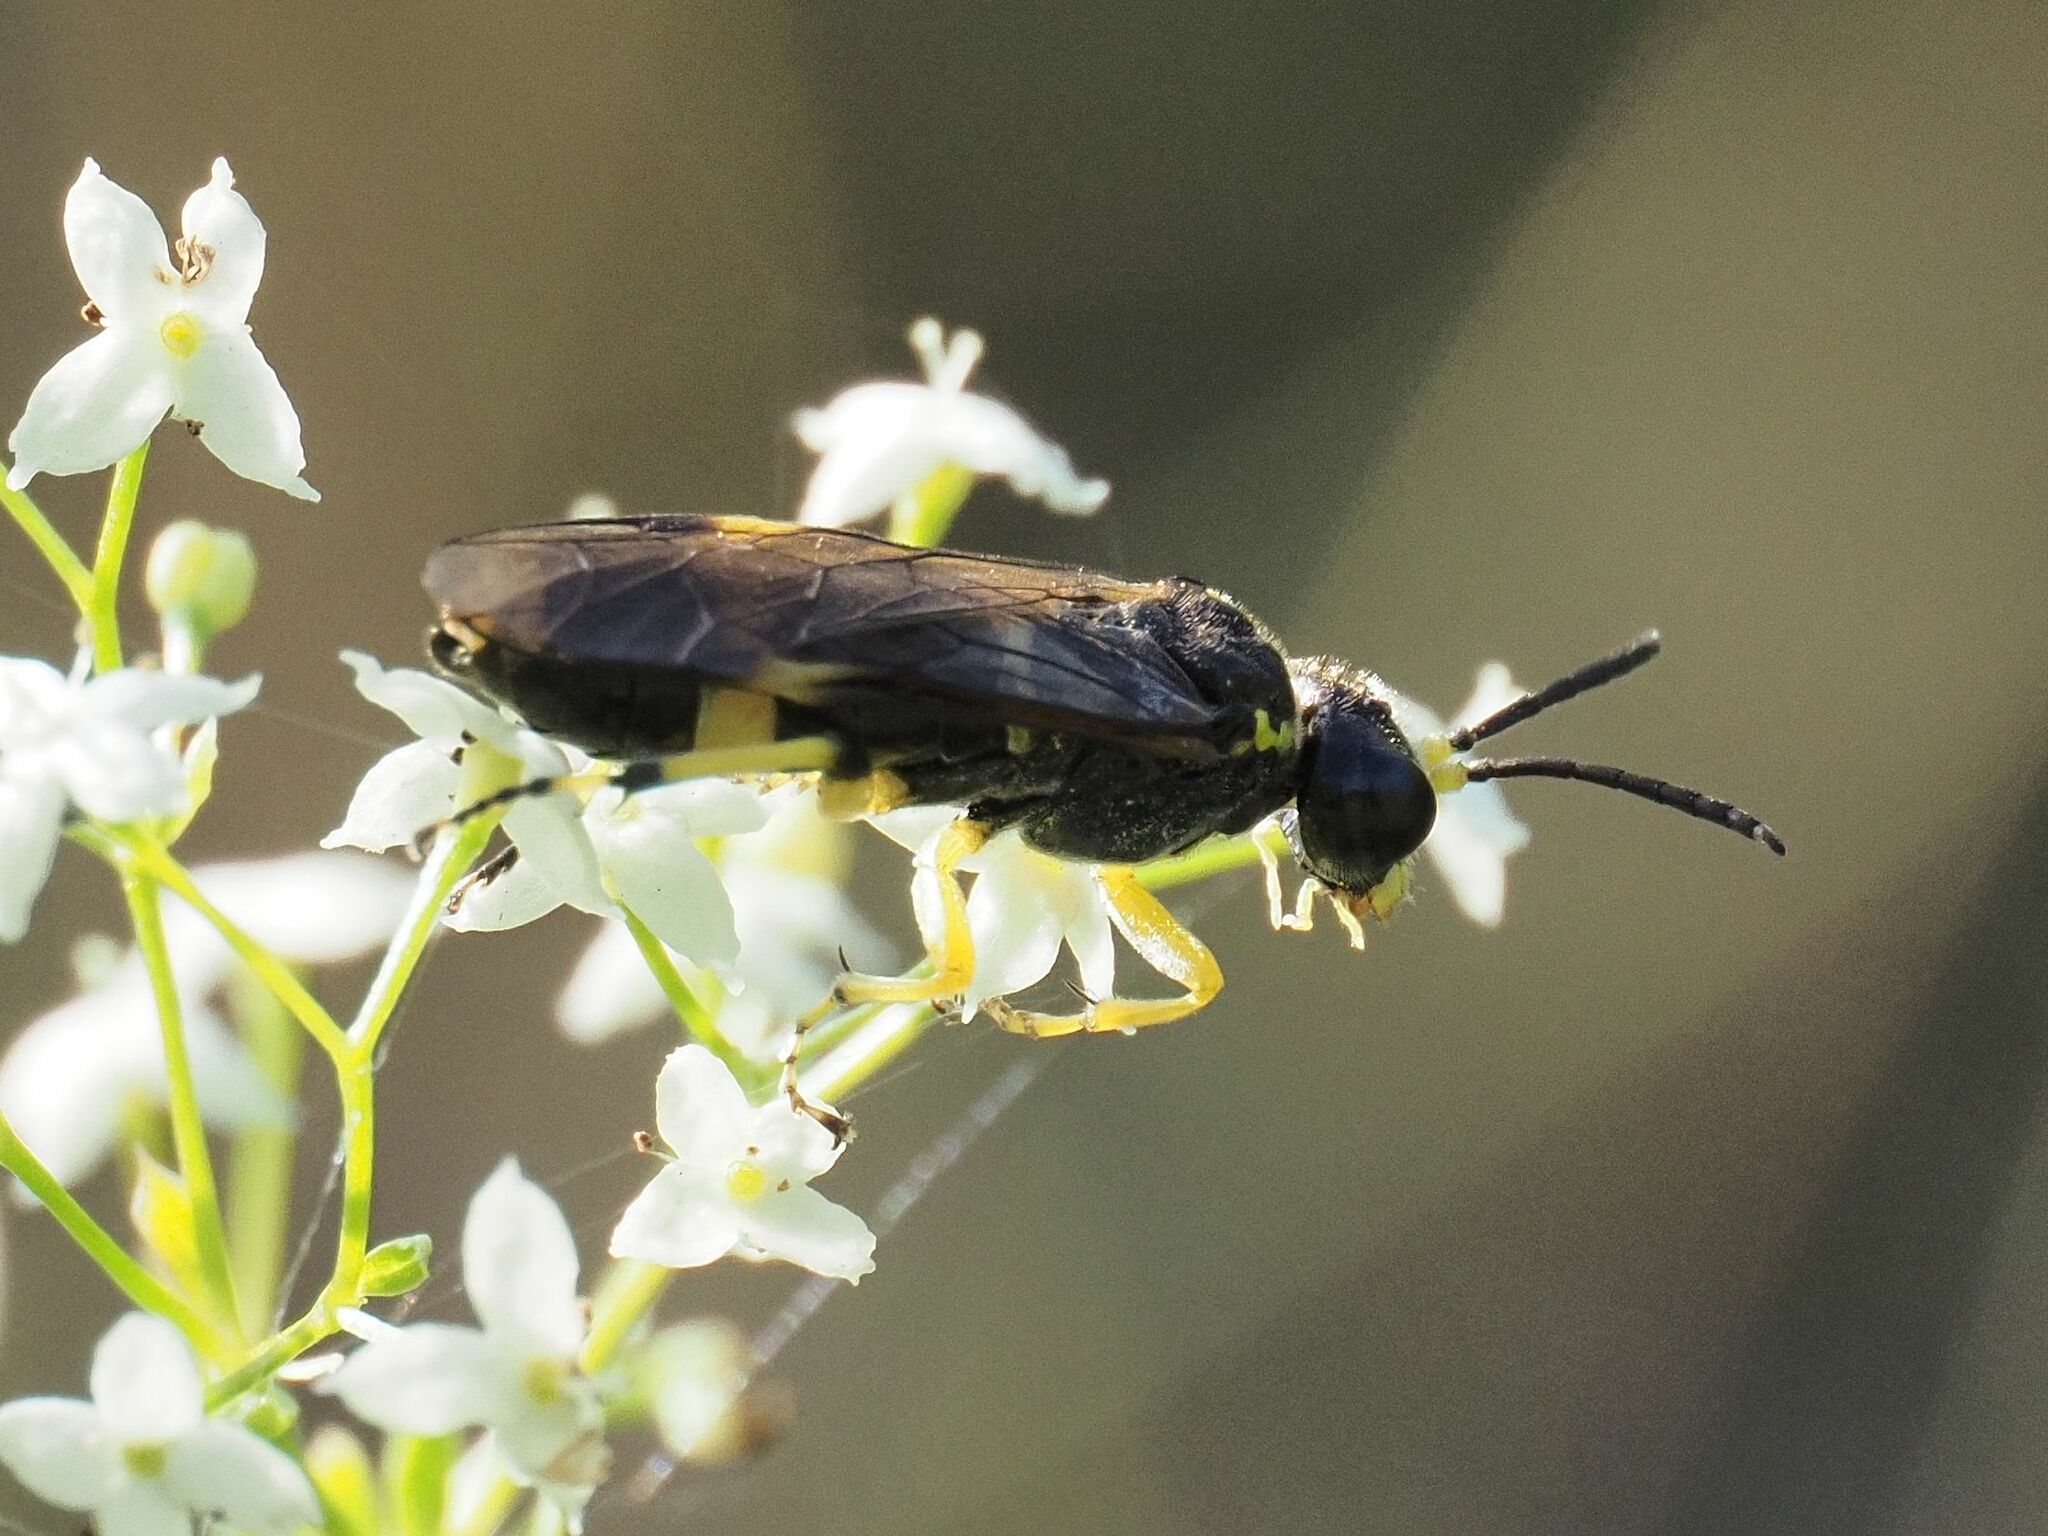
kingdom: Animalia
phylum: Arthropoda
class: Insecta
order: Hymenoptera
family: Tenthredinidae
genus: Tenthredo
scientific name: Tenthredo zonula
